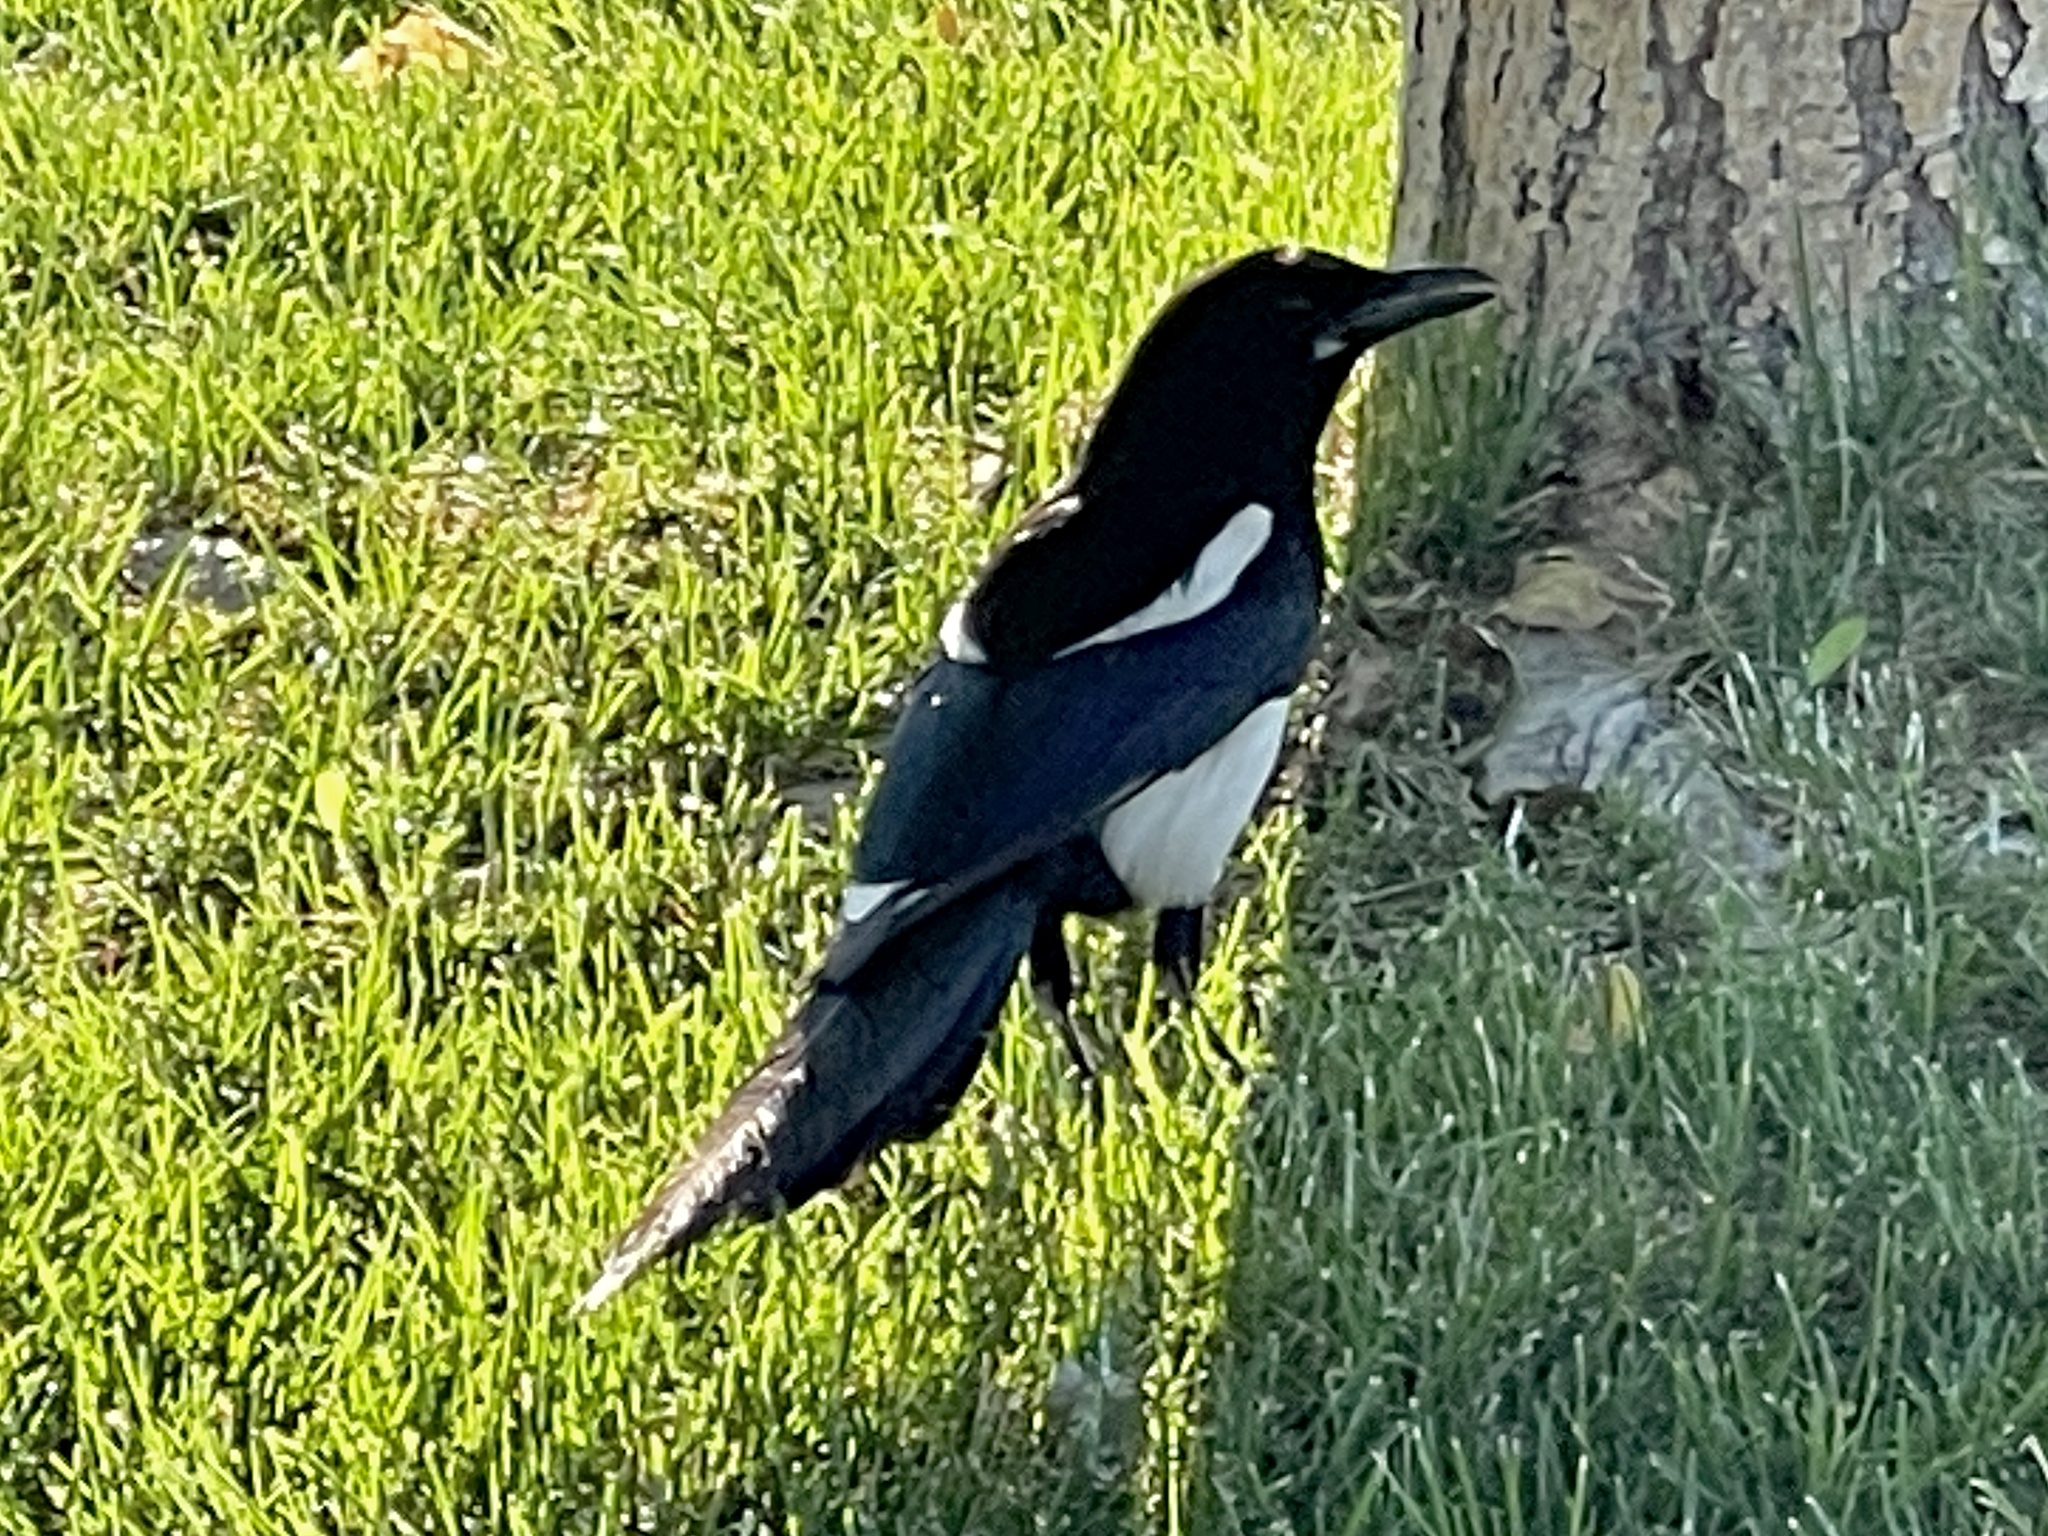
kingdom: Animalia
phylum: Chordata
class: Aves
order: Passeriformes
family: Corvidae
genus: Pica
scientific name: Pica hudsonia
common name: Black-billed magpie
